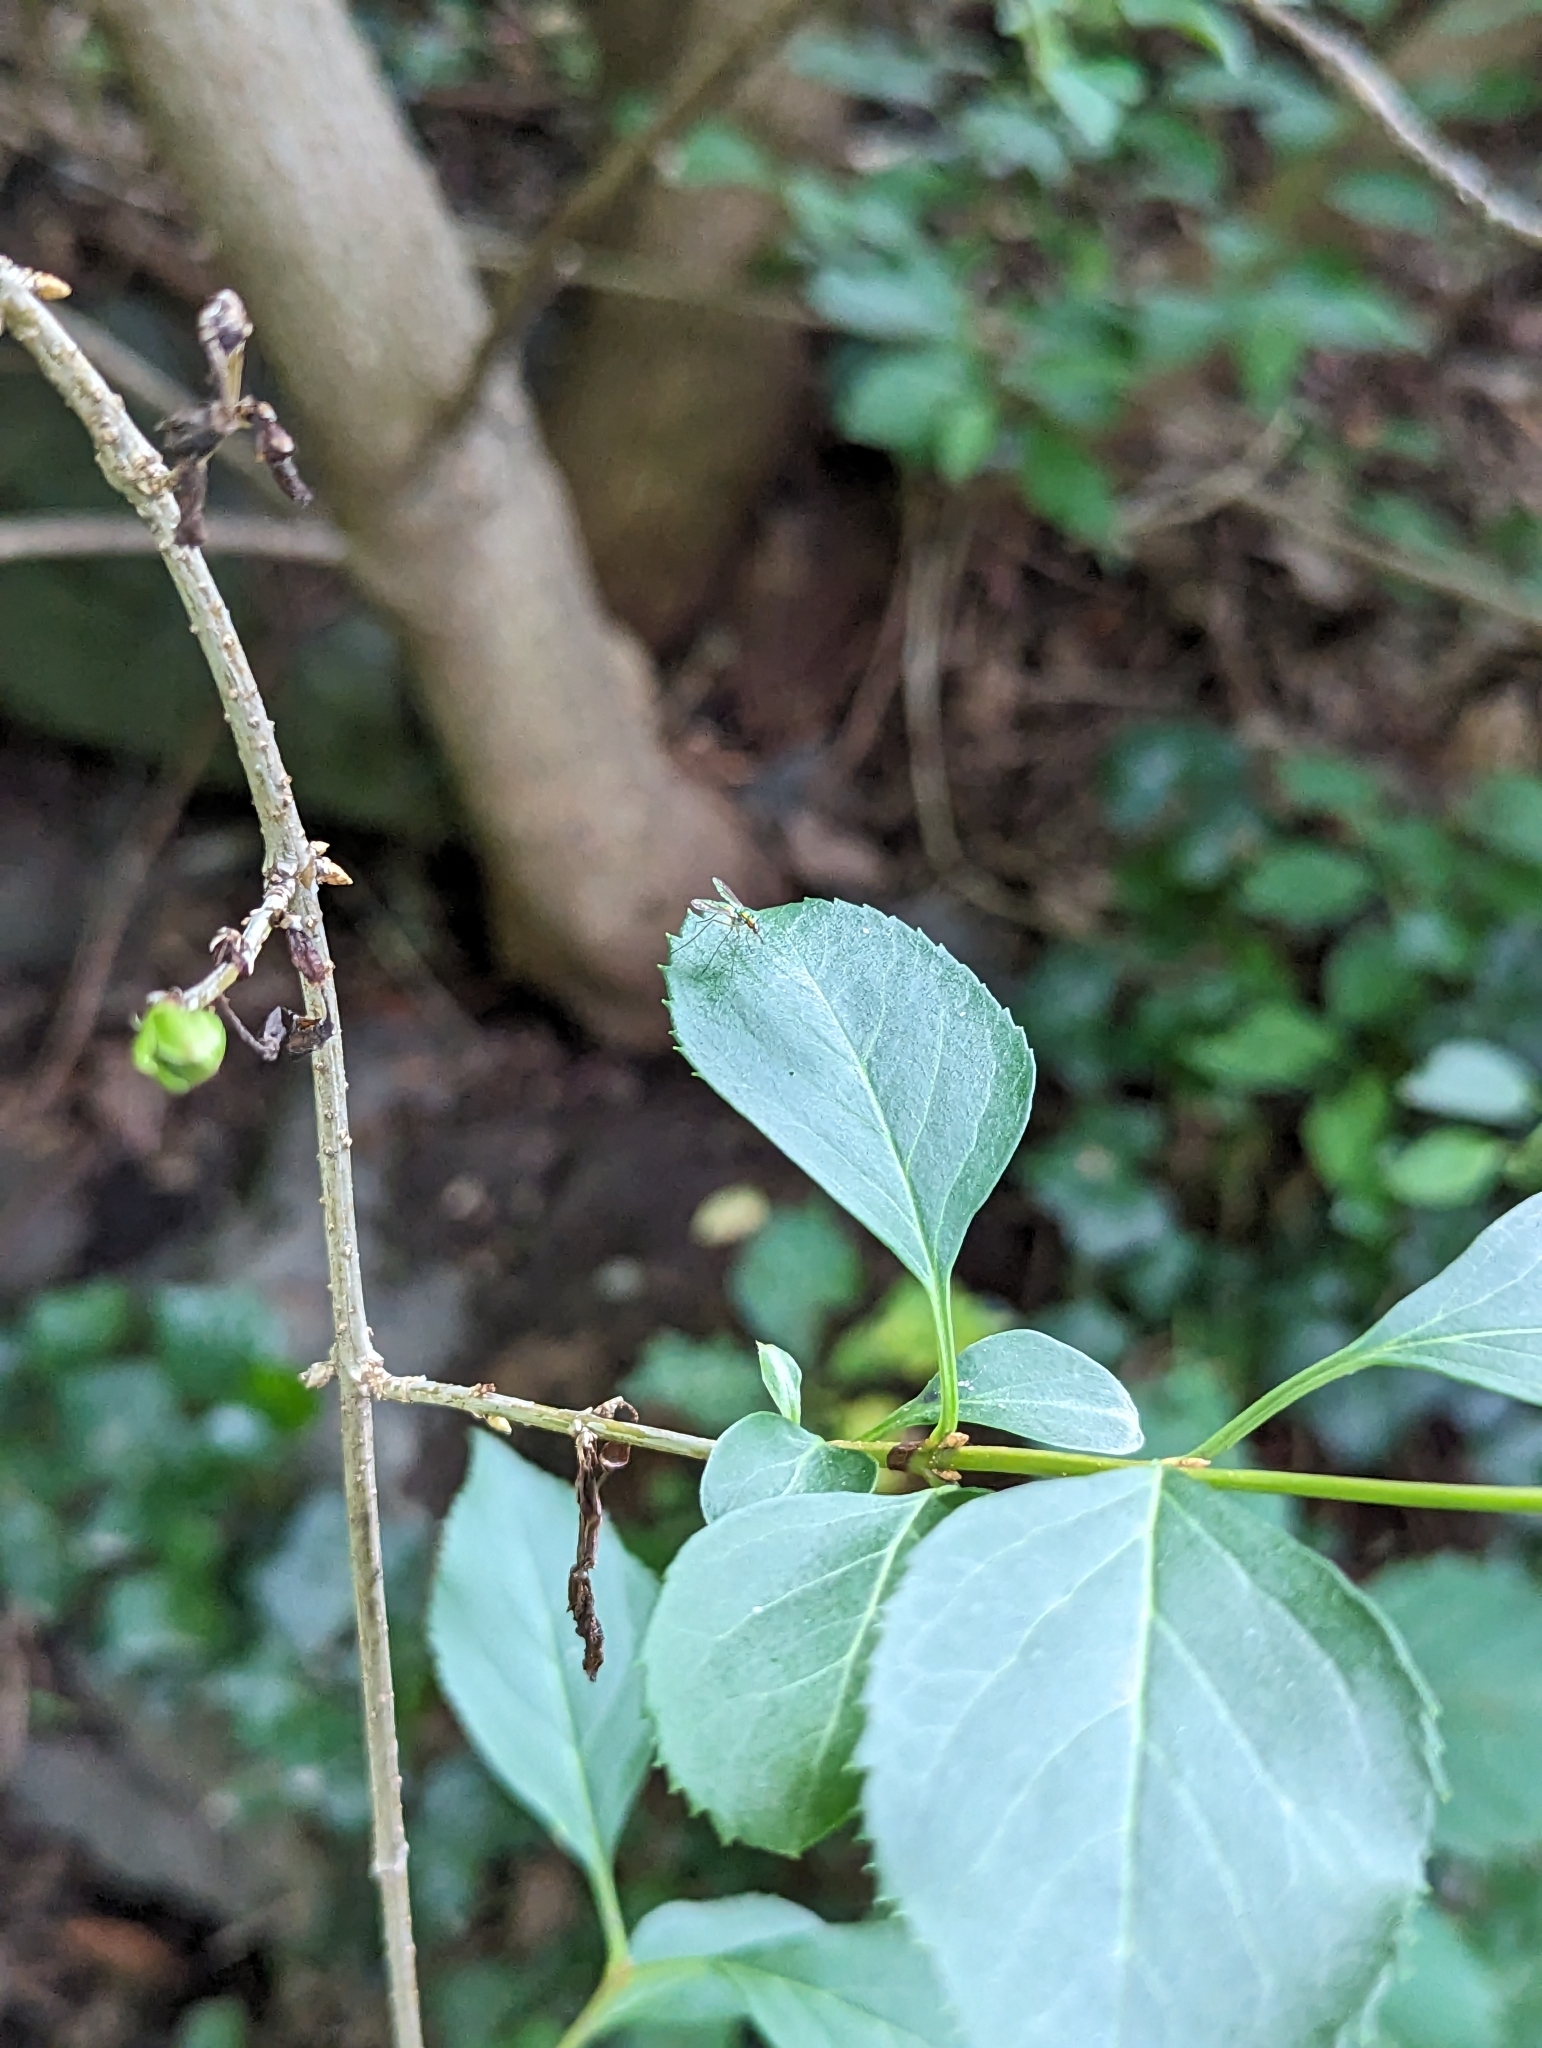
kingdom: Animalia
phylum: Arthropoda
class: Insecta
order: Diptera
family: Dolichopodidae
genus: Amblypsilopus
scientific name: Amblypsilopus scintillans
